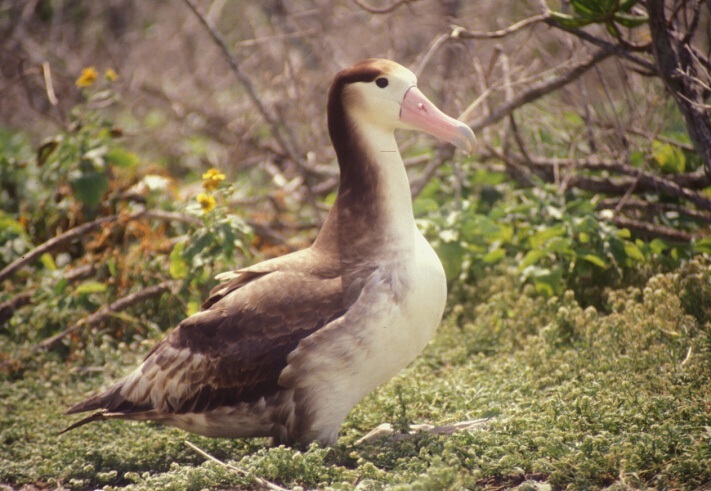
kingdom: Animalia
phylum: Chordata
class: Aves
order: Procellariiformes
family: Diomedeidae
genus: Phoebastria
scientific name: Phoebastria albatrus
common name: Short-tailed albatross
